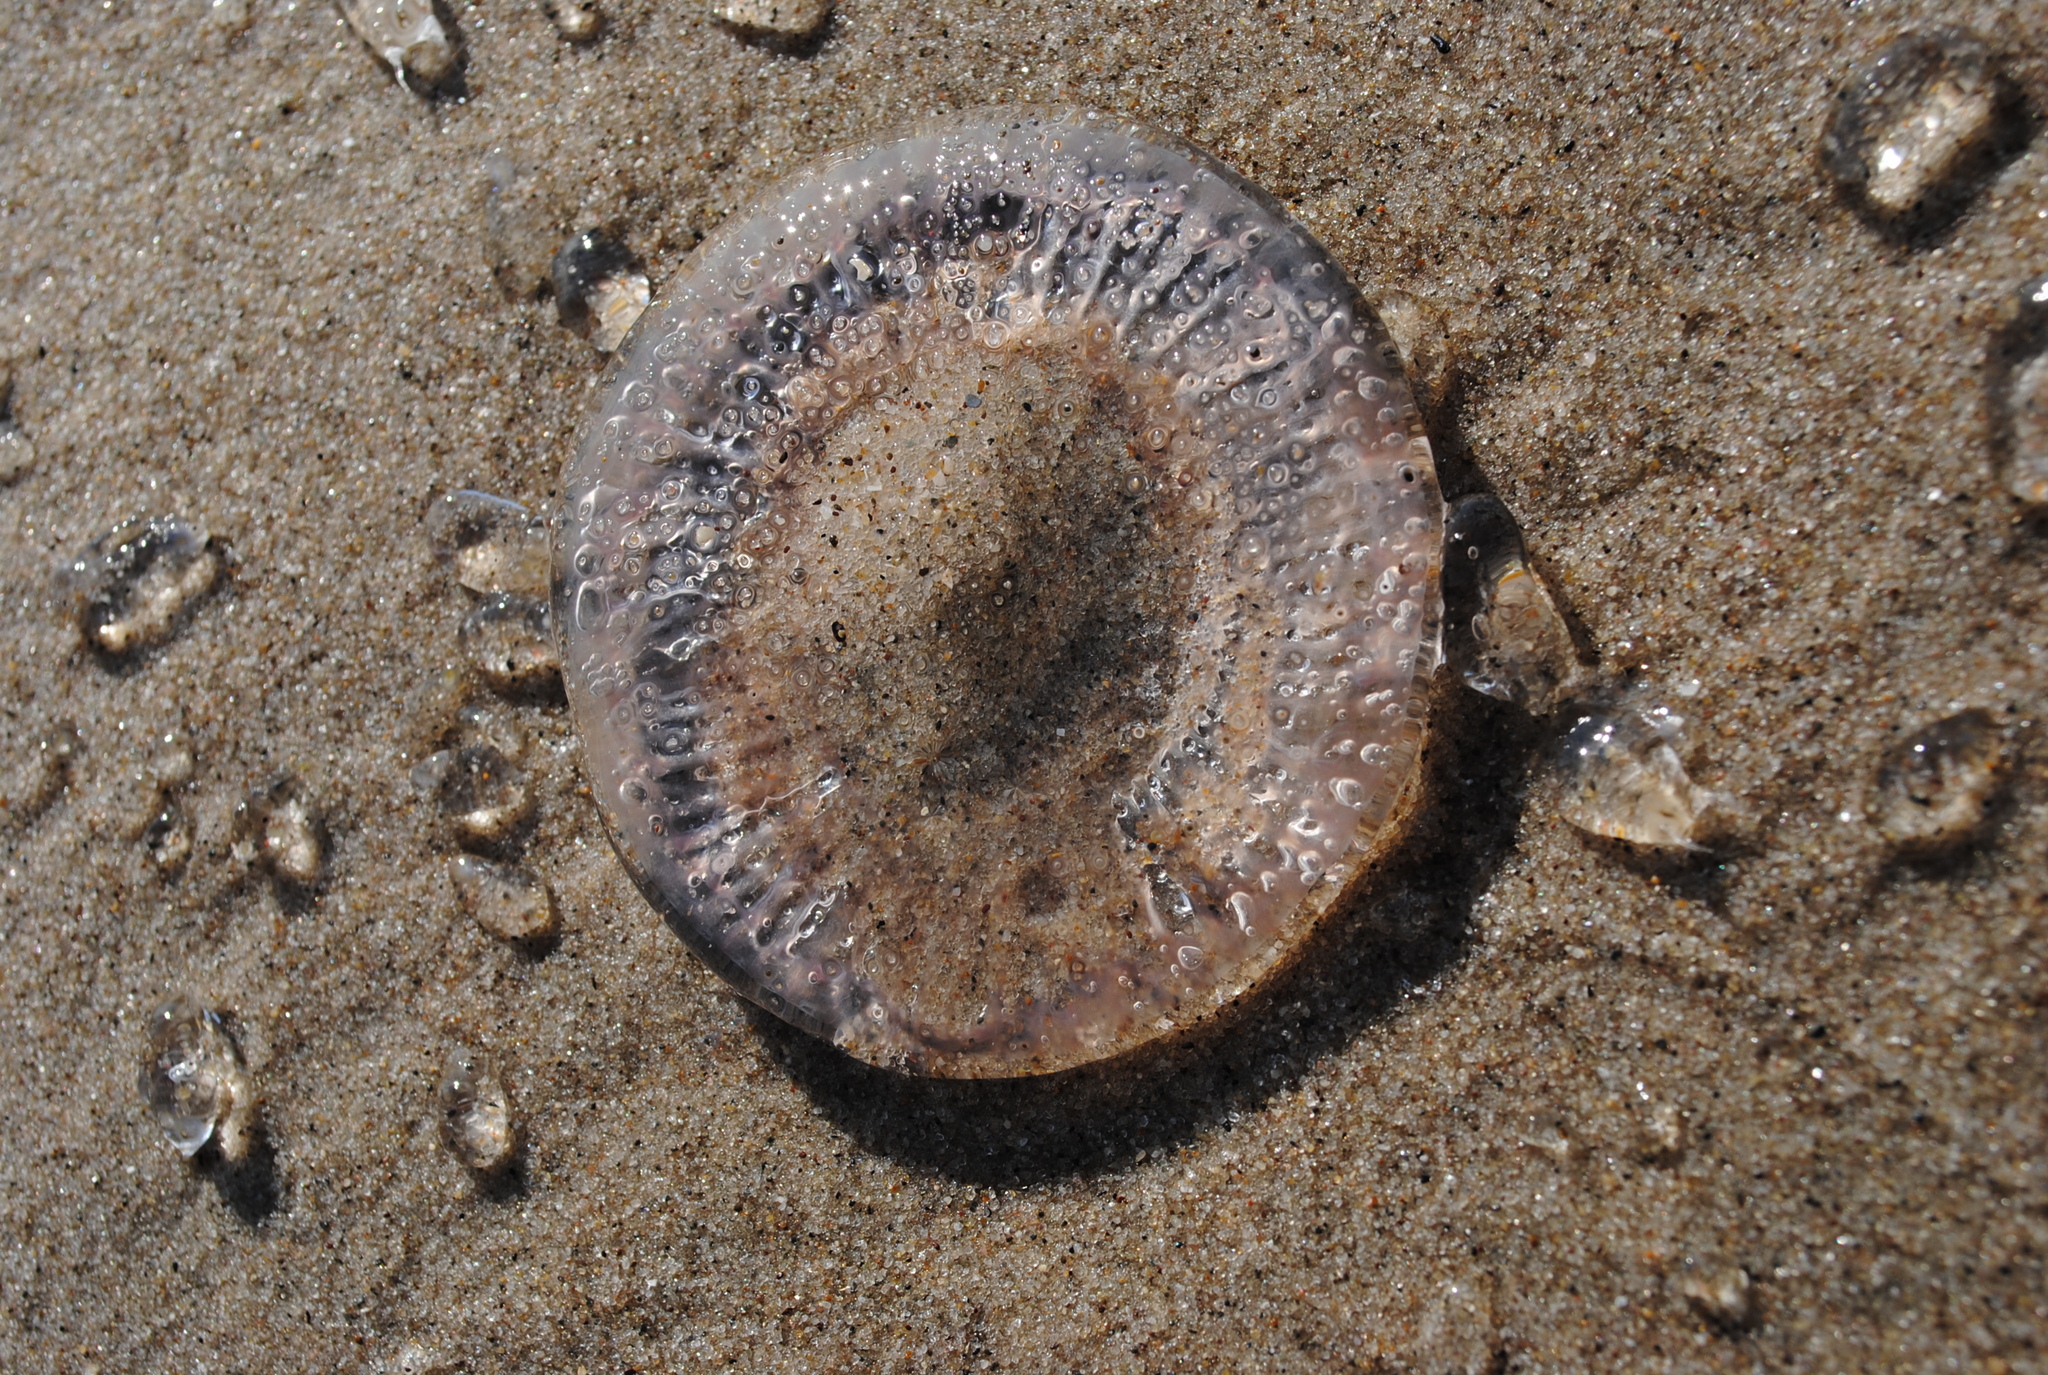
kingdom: Animalia
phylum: Cnidaria
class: Hydrozoa
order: Leptothecata
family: Aequoreidae
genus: Rhacostoma
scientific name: Rhacostoma atlanticum
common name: Lined water jelly
